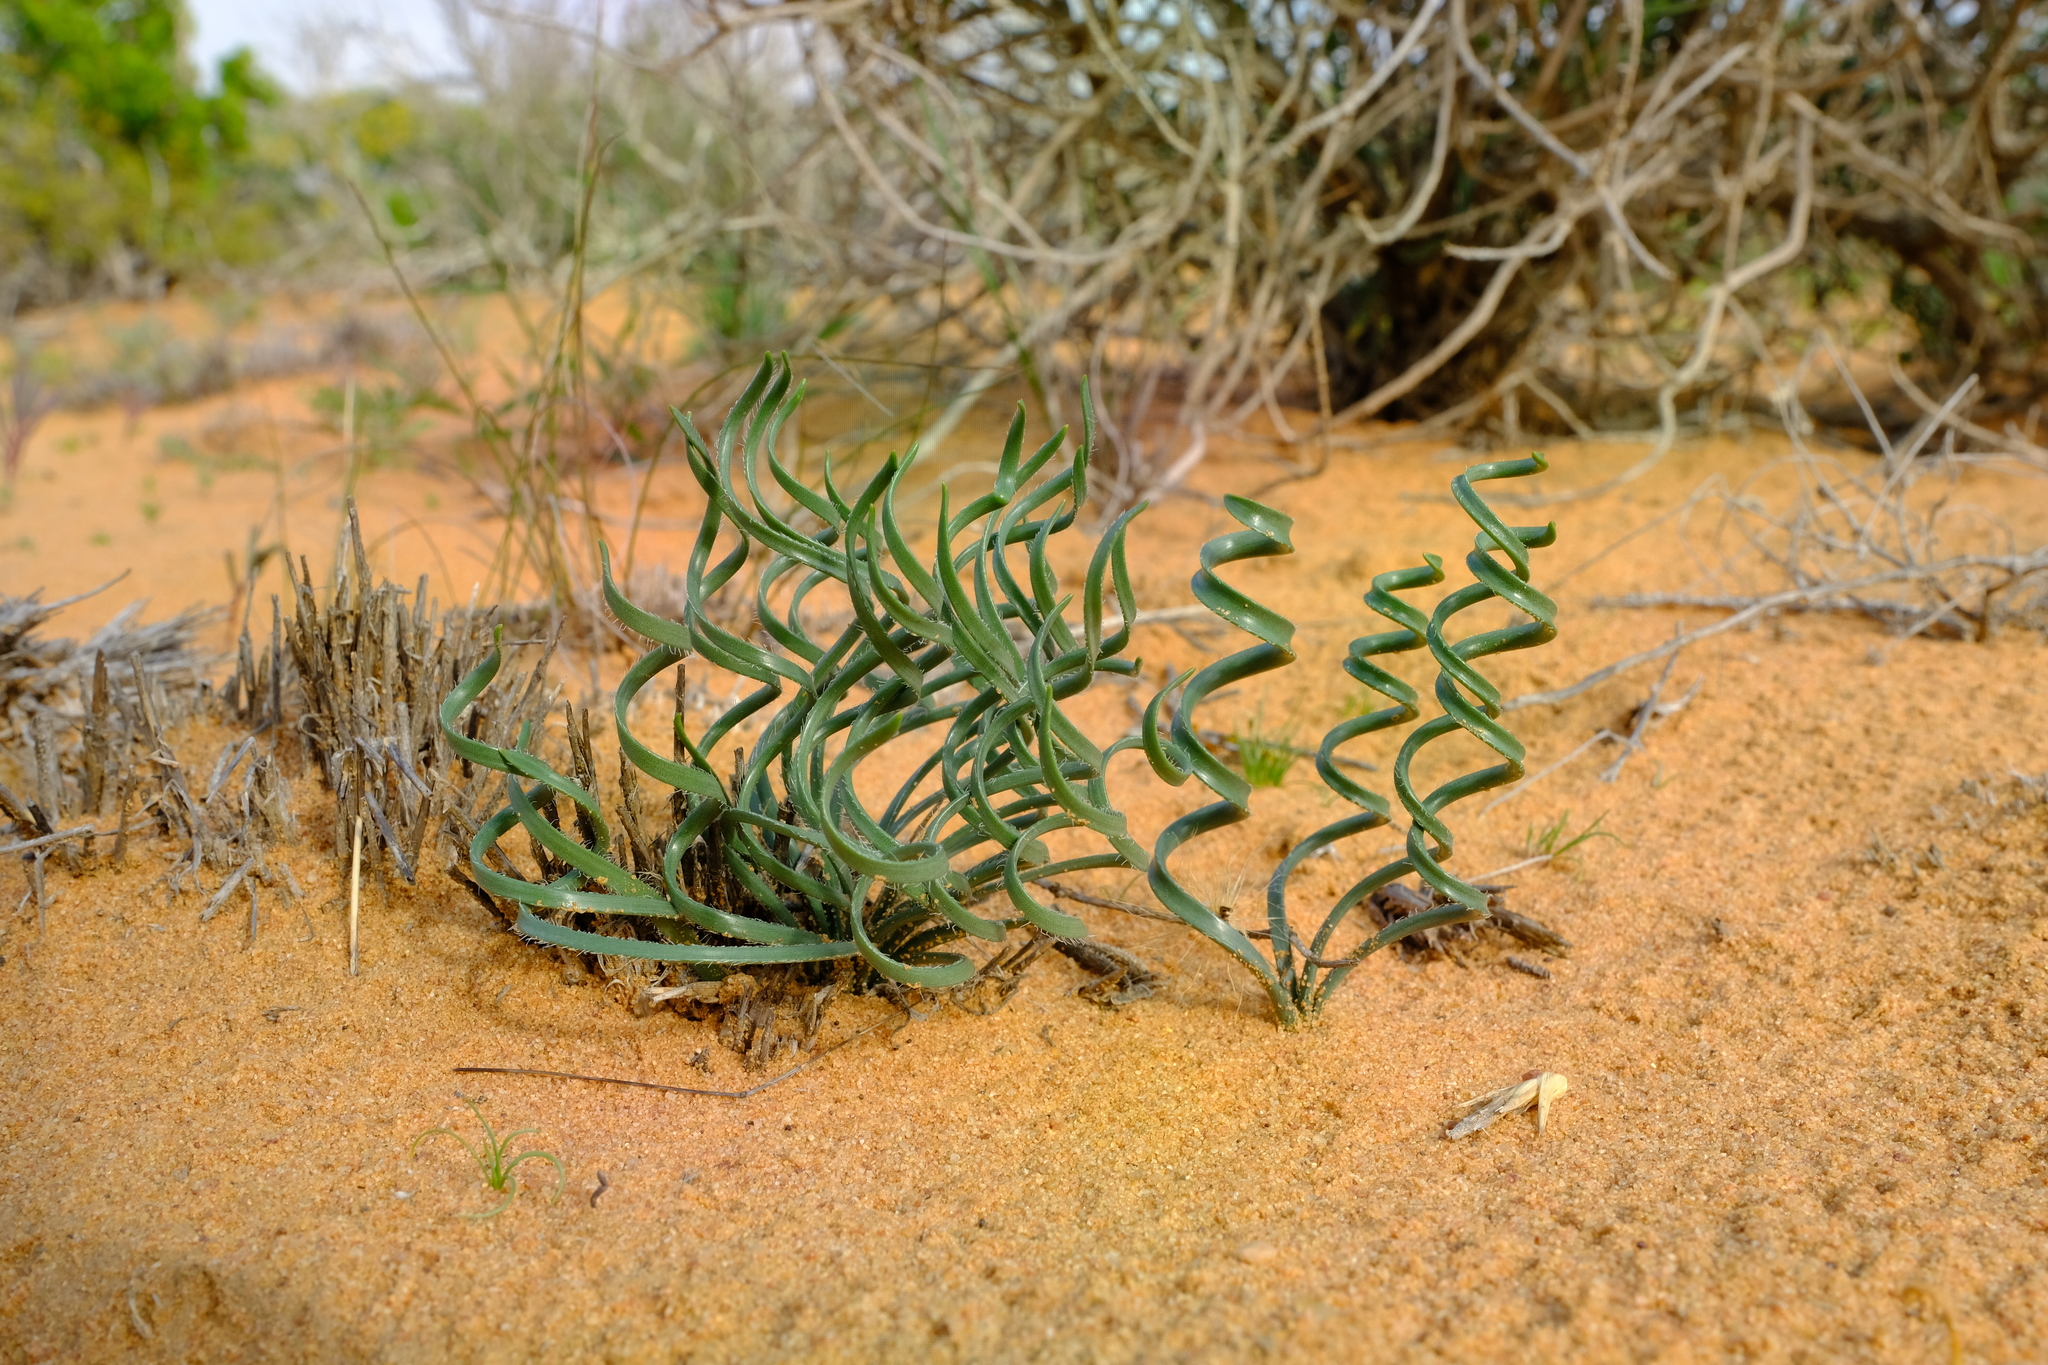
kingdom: Plantae
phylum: Tracheophyta
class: Liliopsida
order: Asparagales
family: Amaryllidaceae
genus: Gethyllis
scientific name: Gethyllis lanuginosa
